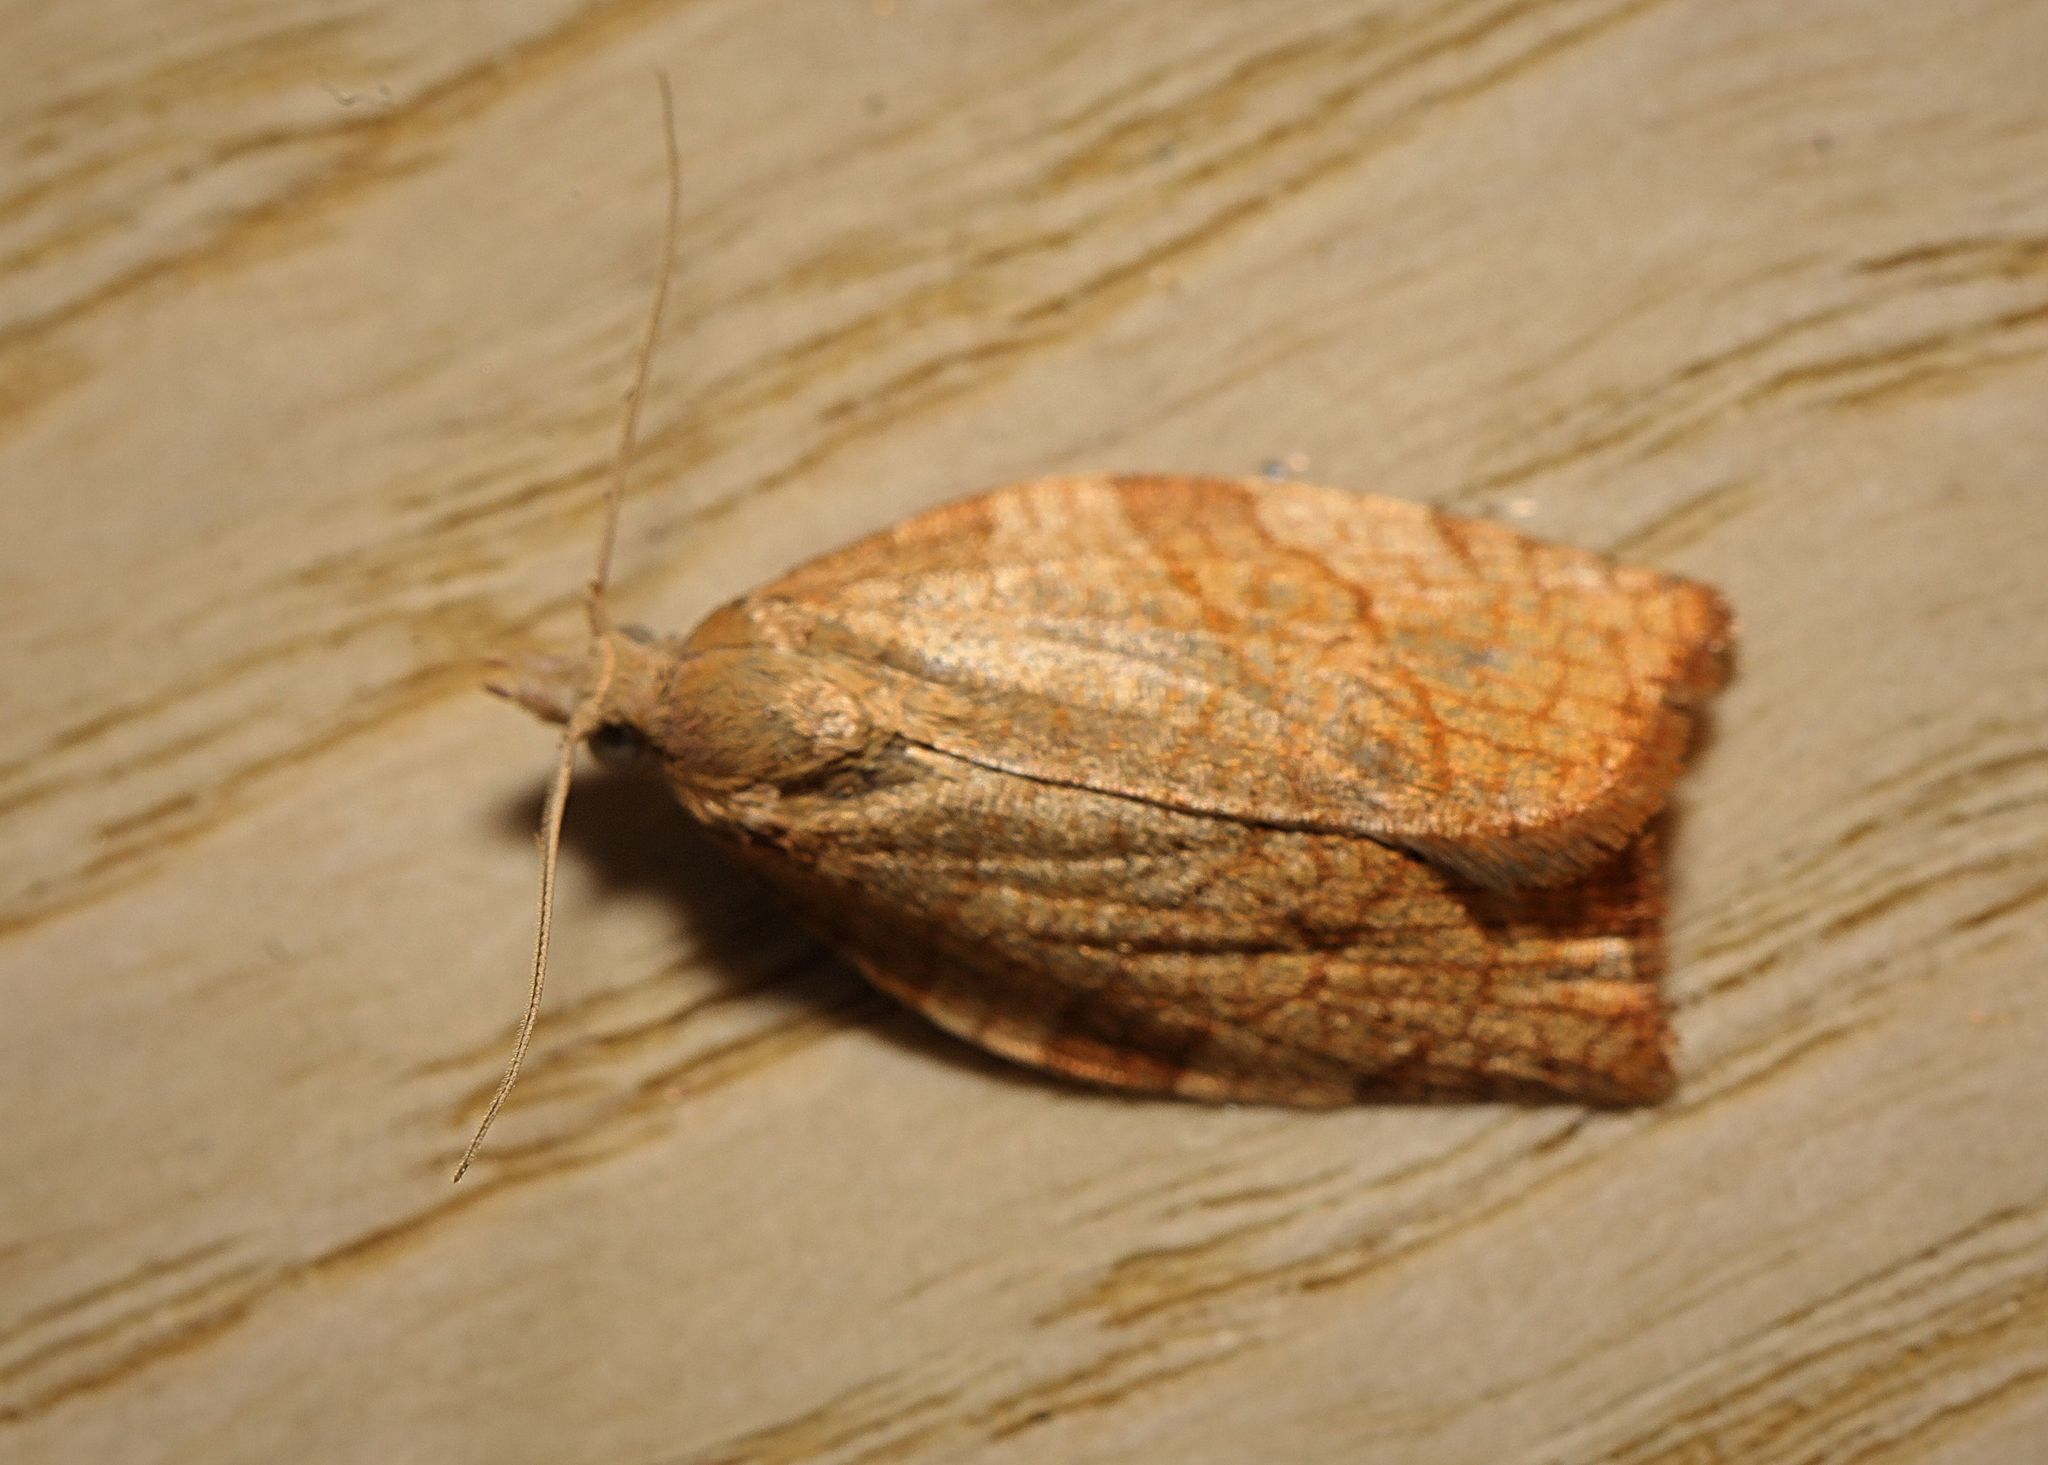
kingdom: Animalia
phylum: Arthropoda
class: Insecta
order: Lepidoptera
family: Tortricidae
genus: Pandemis
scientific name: Pandemis corylana
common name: Chequered fruit-tree tortrix
